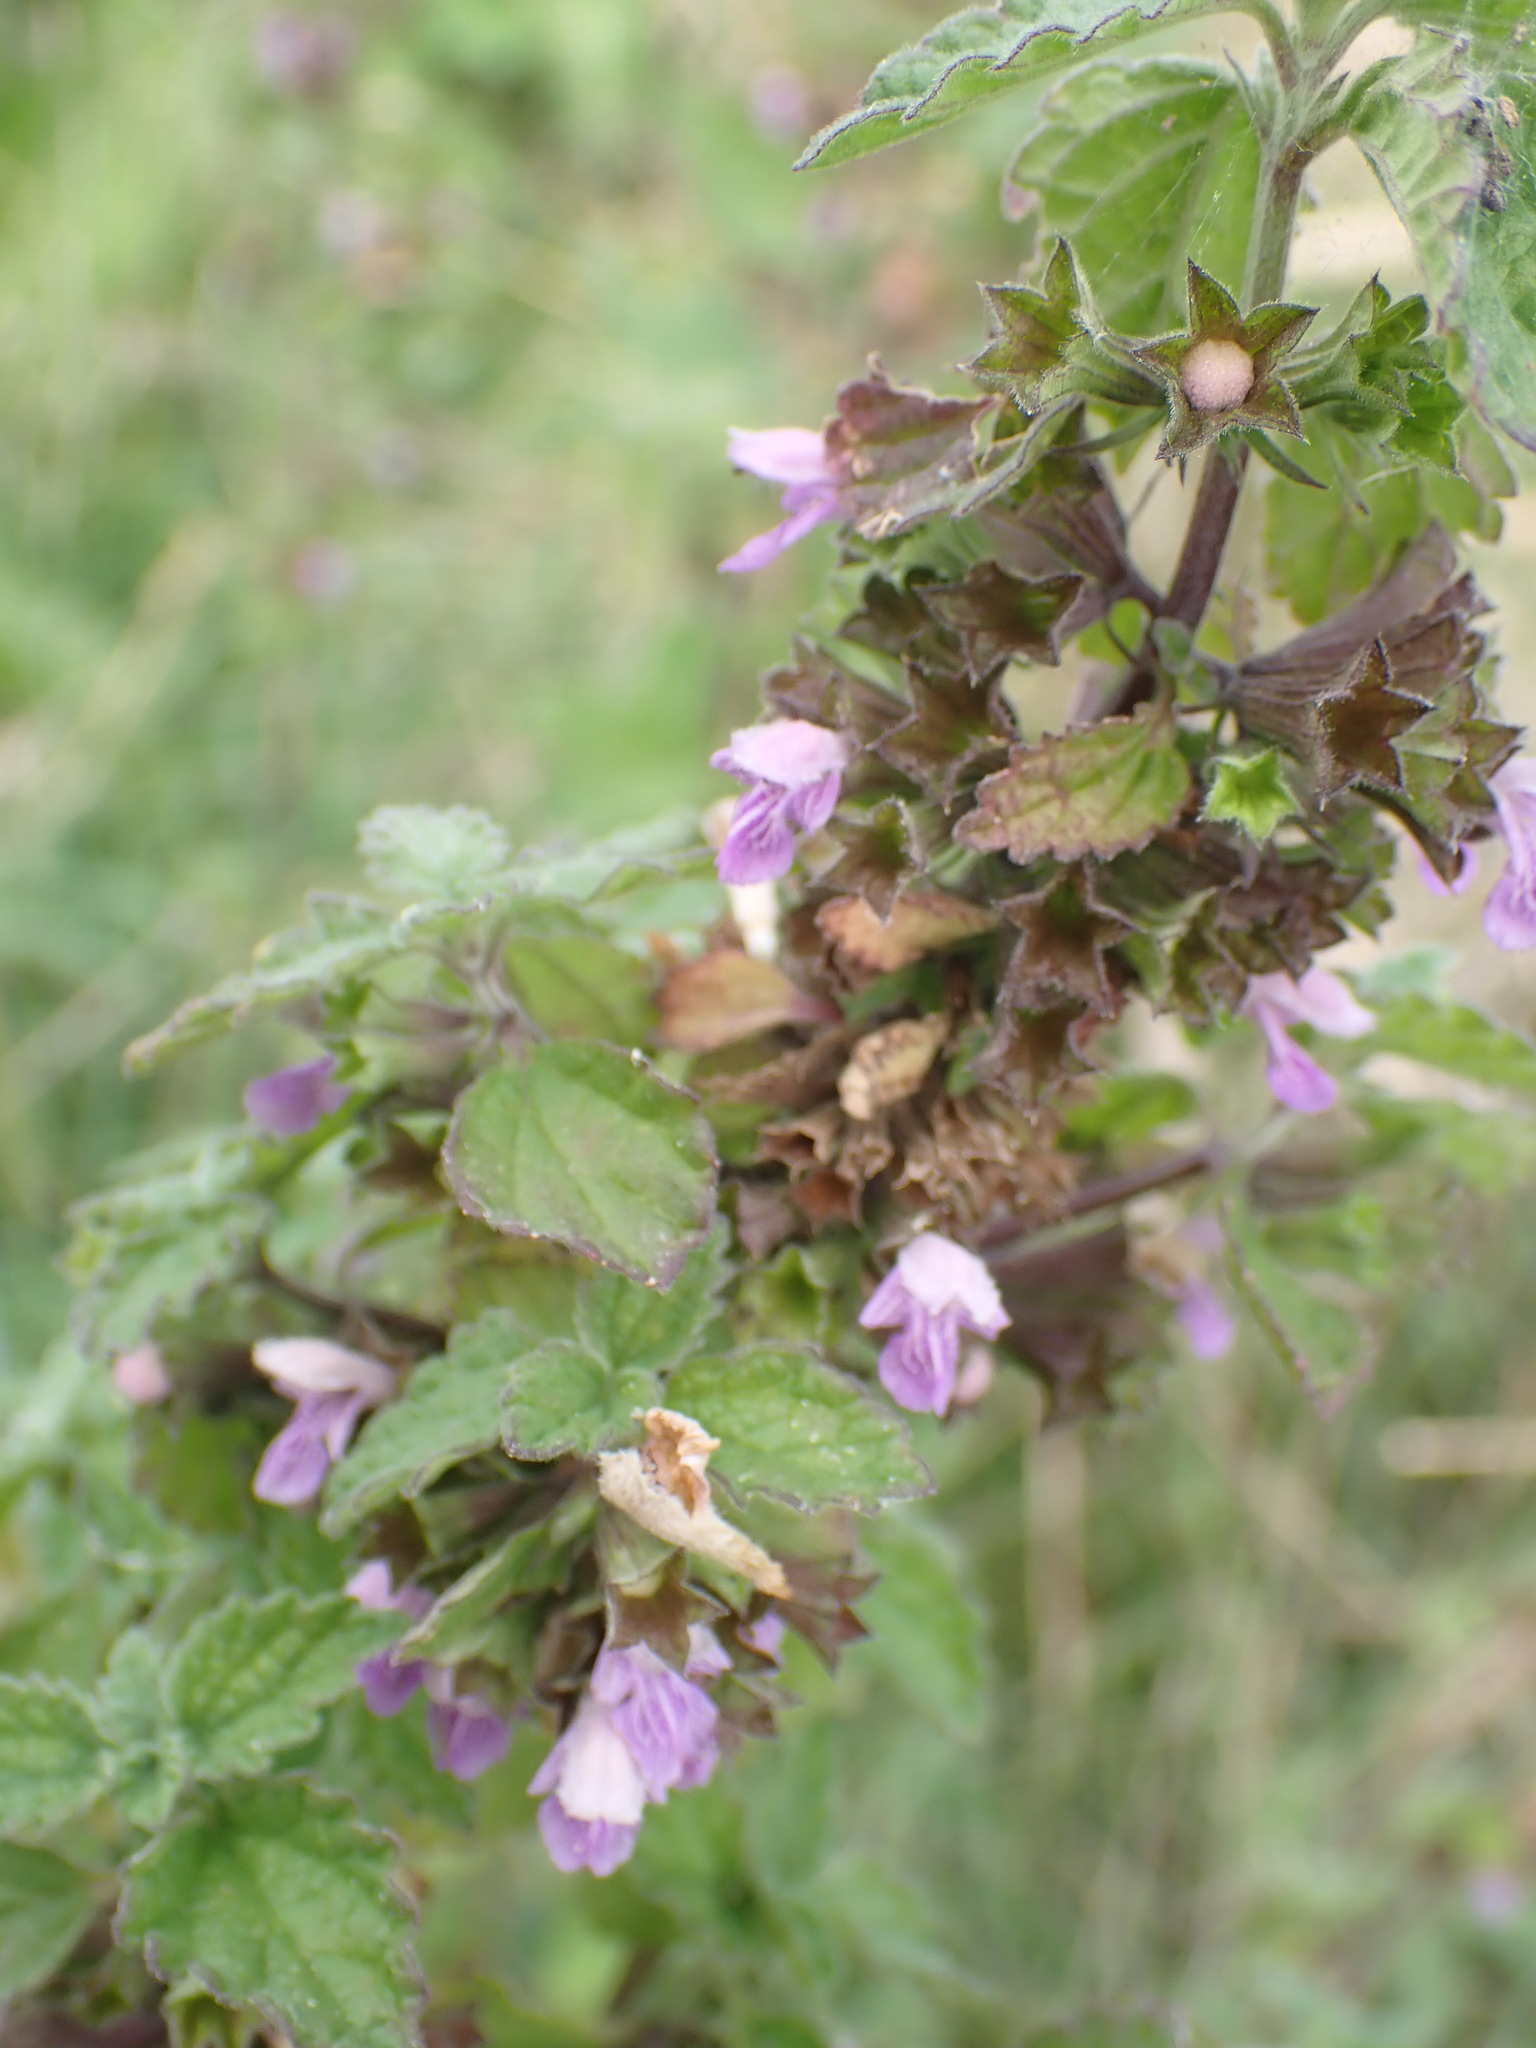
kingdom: Plantae
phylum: Tracheophyta
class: Magnoliopsida
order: Lamiales
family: Lamiaceae
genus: Ballota
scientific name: Ballota nigra
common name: Black horehound
